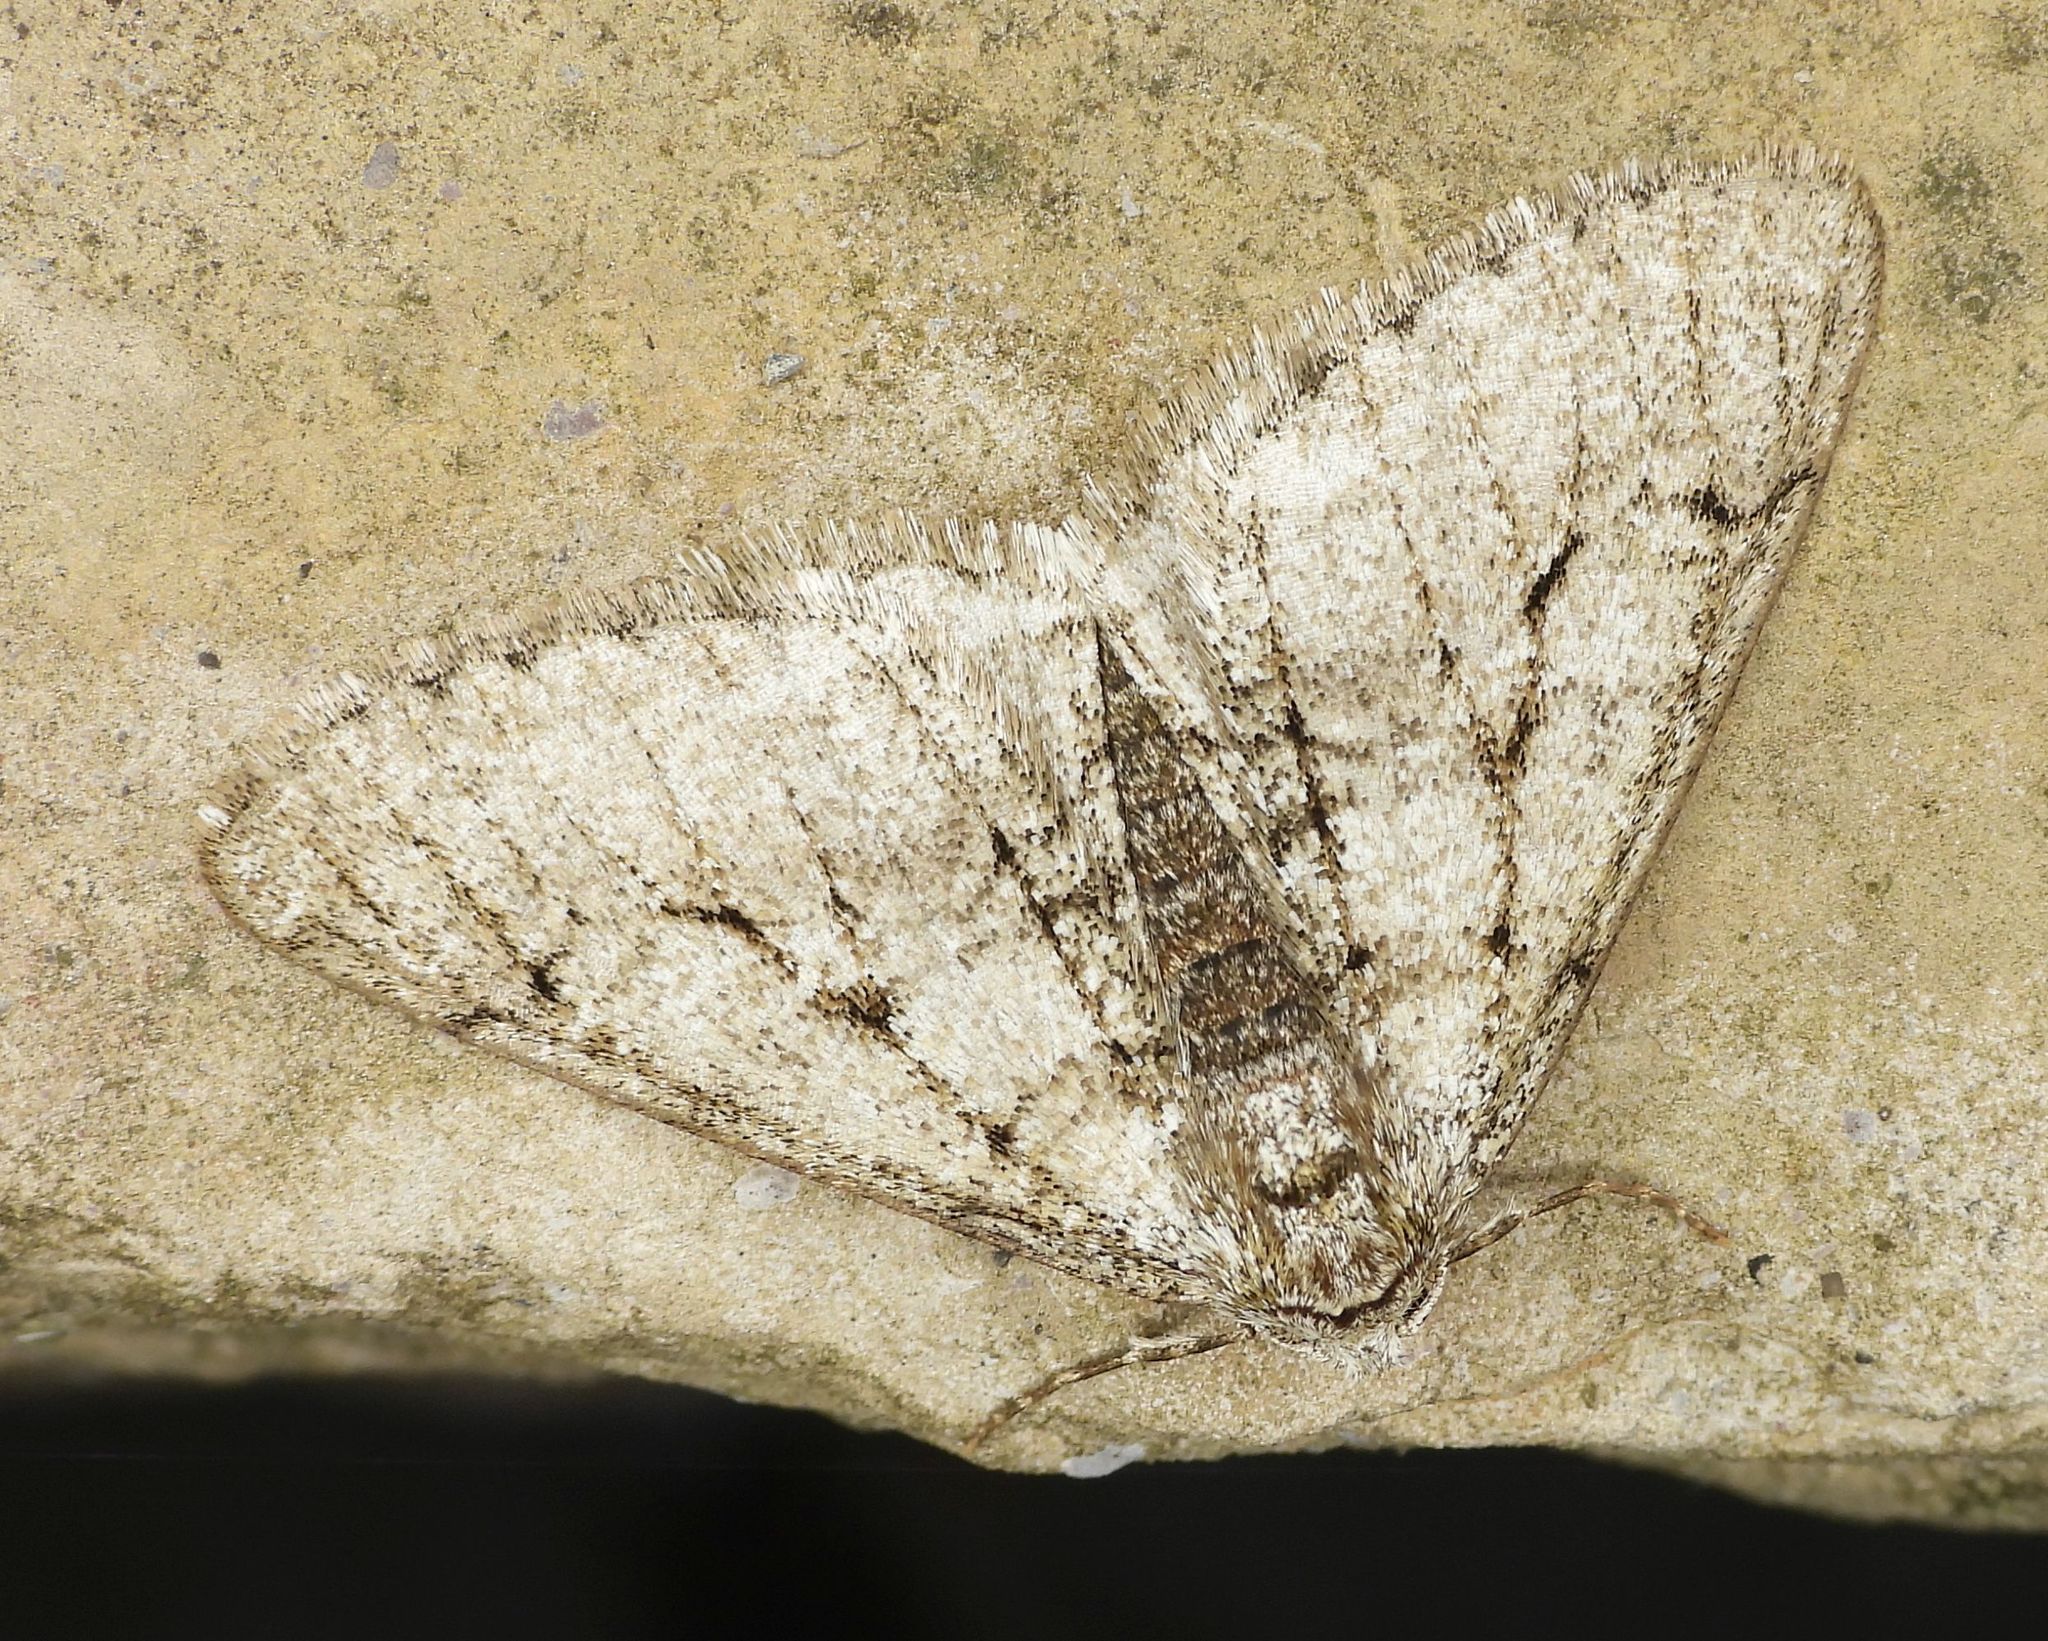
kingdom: Animalia
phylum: Arthropoda
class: Insecta
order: Lepidoptera
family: Geometridae
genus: Phigalia
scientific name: Phigalia titea
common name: Spiny looper
